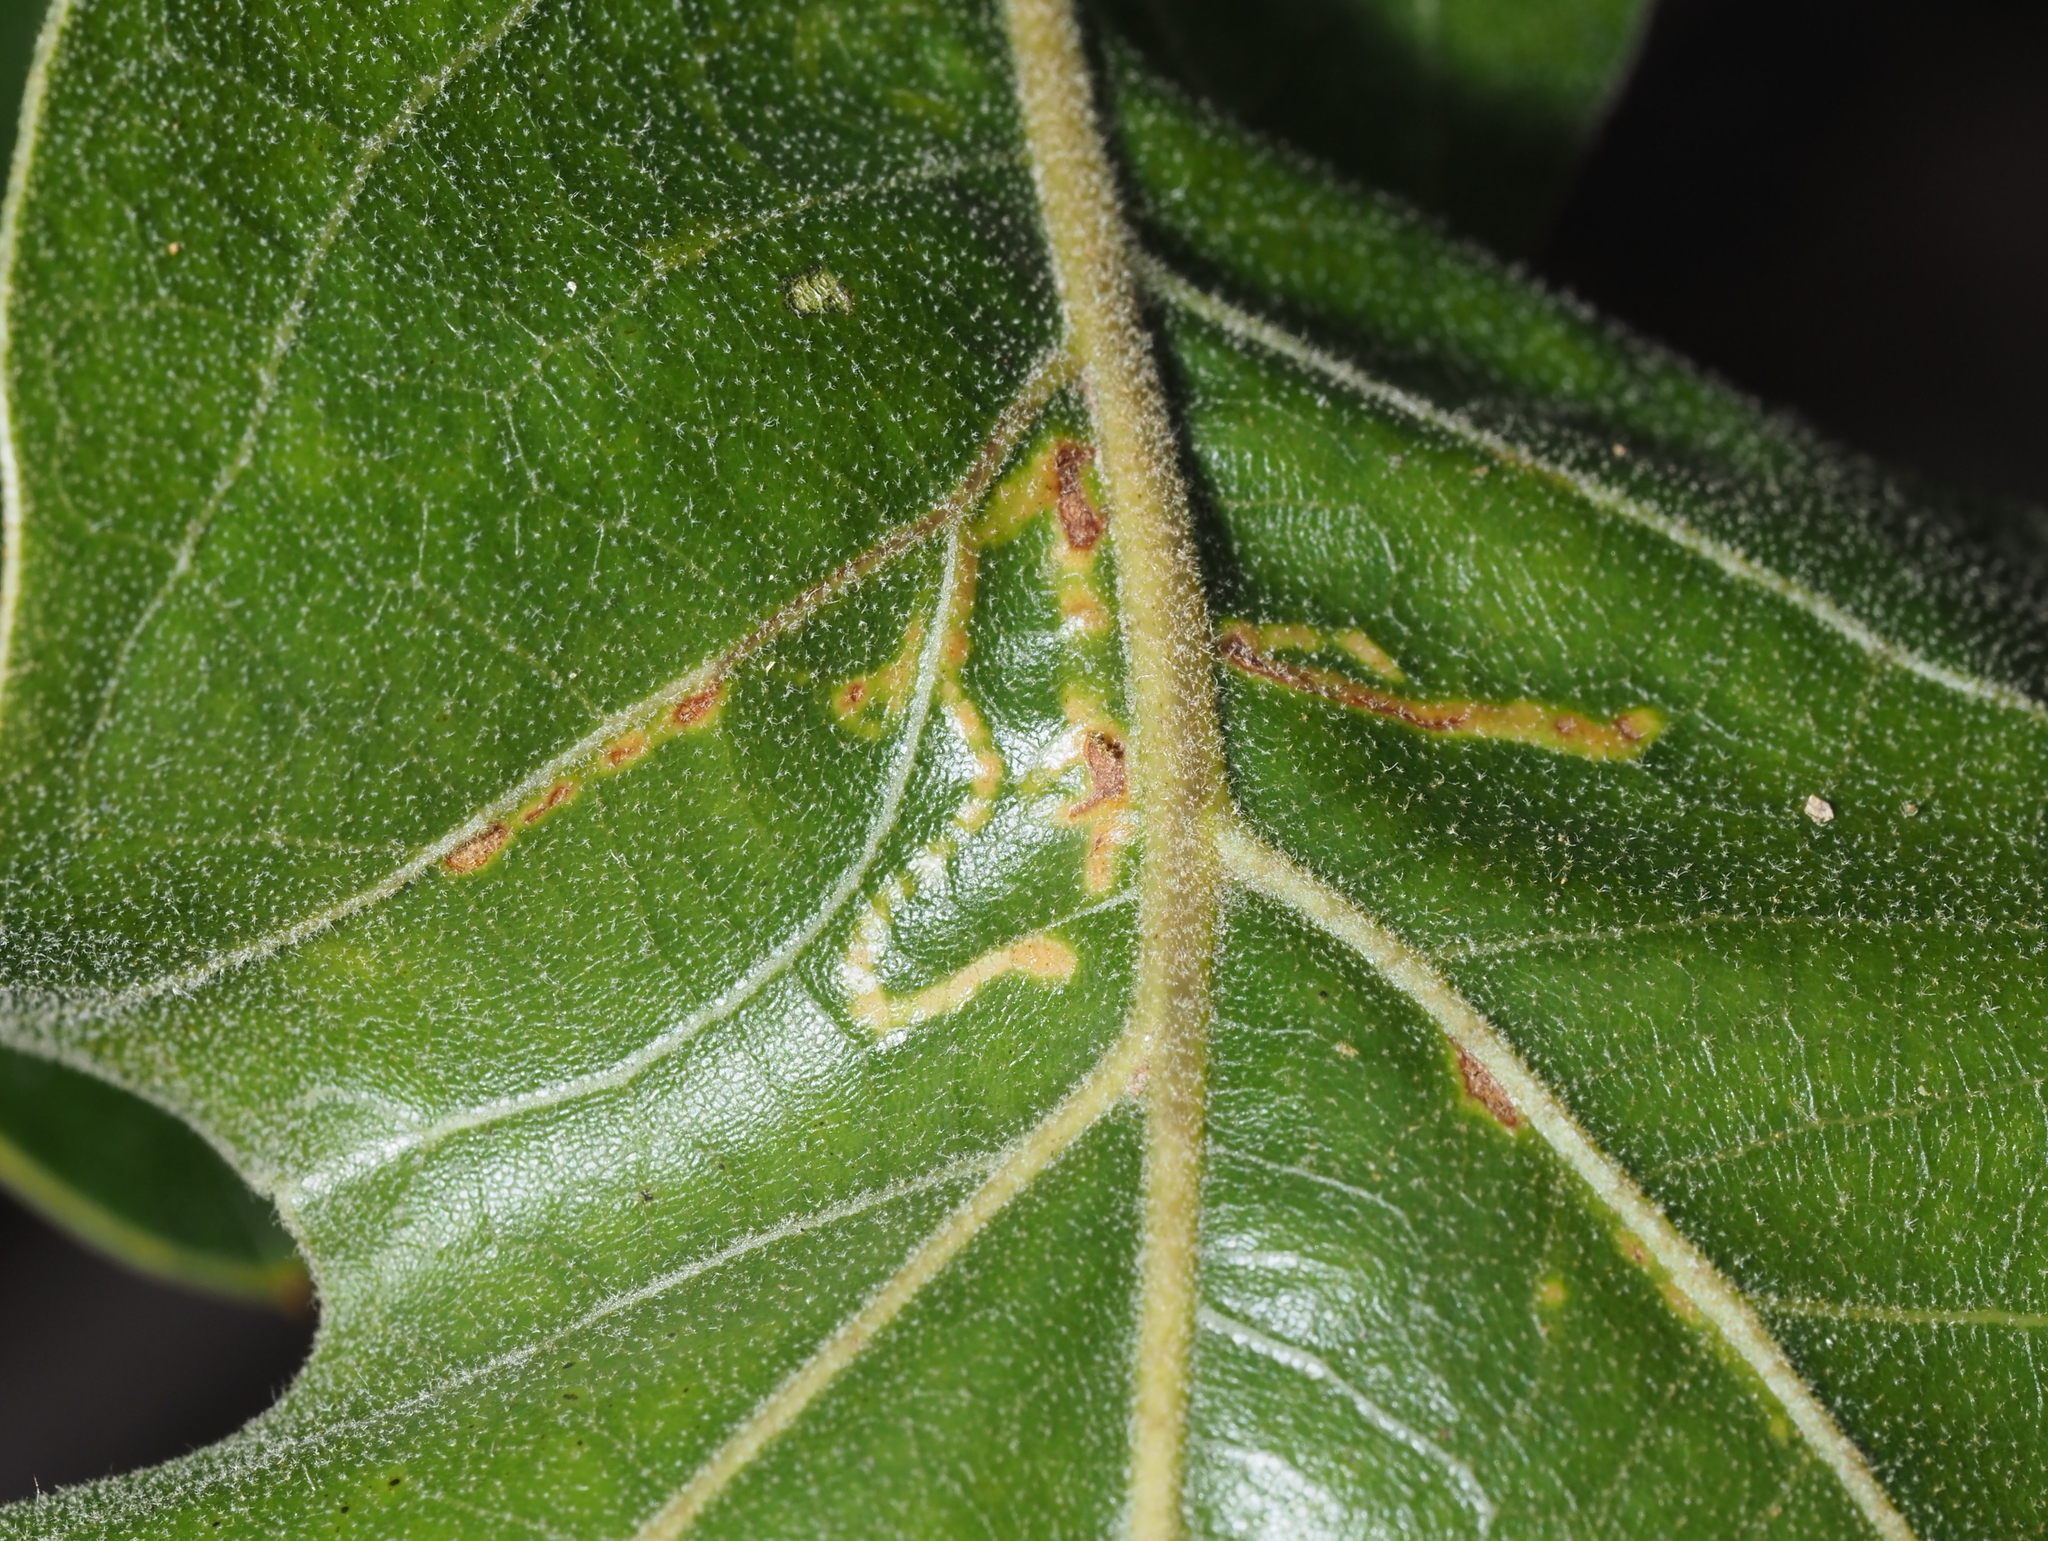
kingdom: Animalia
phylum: Arthropoda
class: Insecta
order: Lepidoptera
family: Gracillariidae
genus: Neurobathra
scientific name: Neurobathra strigifinitella
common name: Finite-channeled leafminer moth
